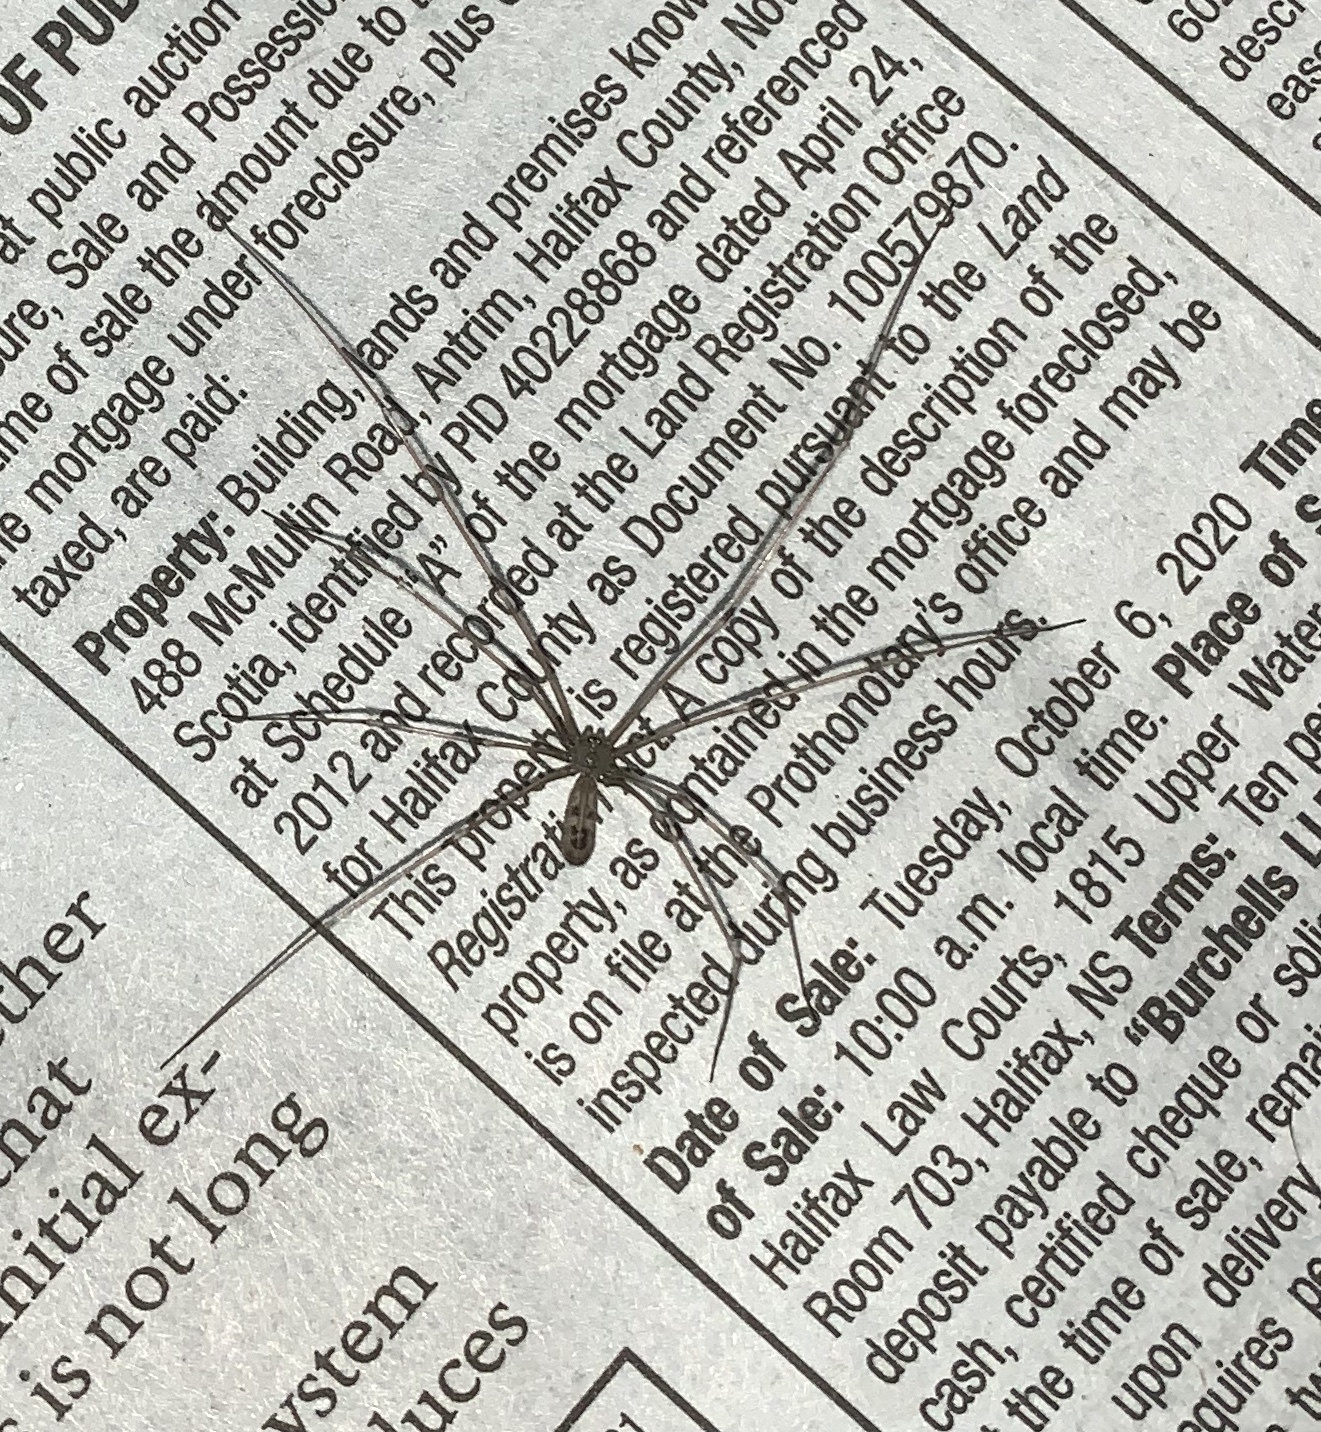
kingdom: Animalia
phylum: Arthropoda
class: Arachnida
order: Araneae
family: Pholcidae
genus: Pholcus
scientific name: Pholcus phalangioides
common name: Longbodied cellar spider
